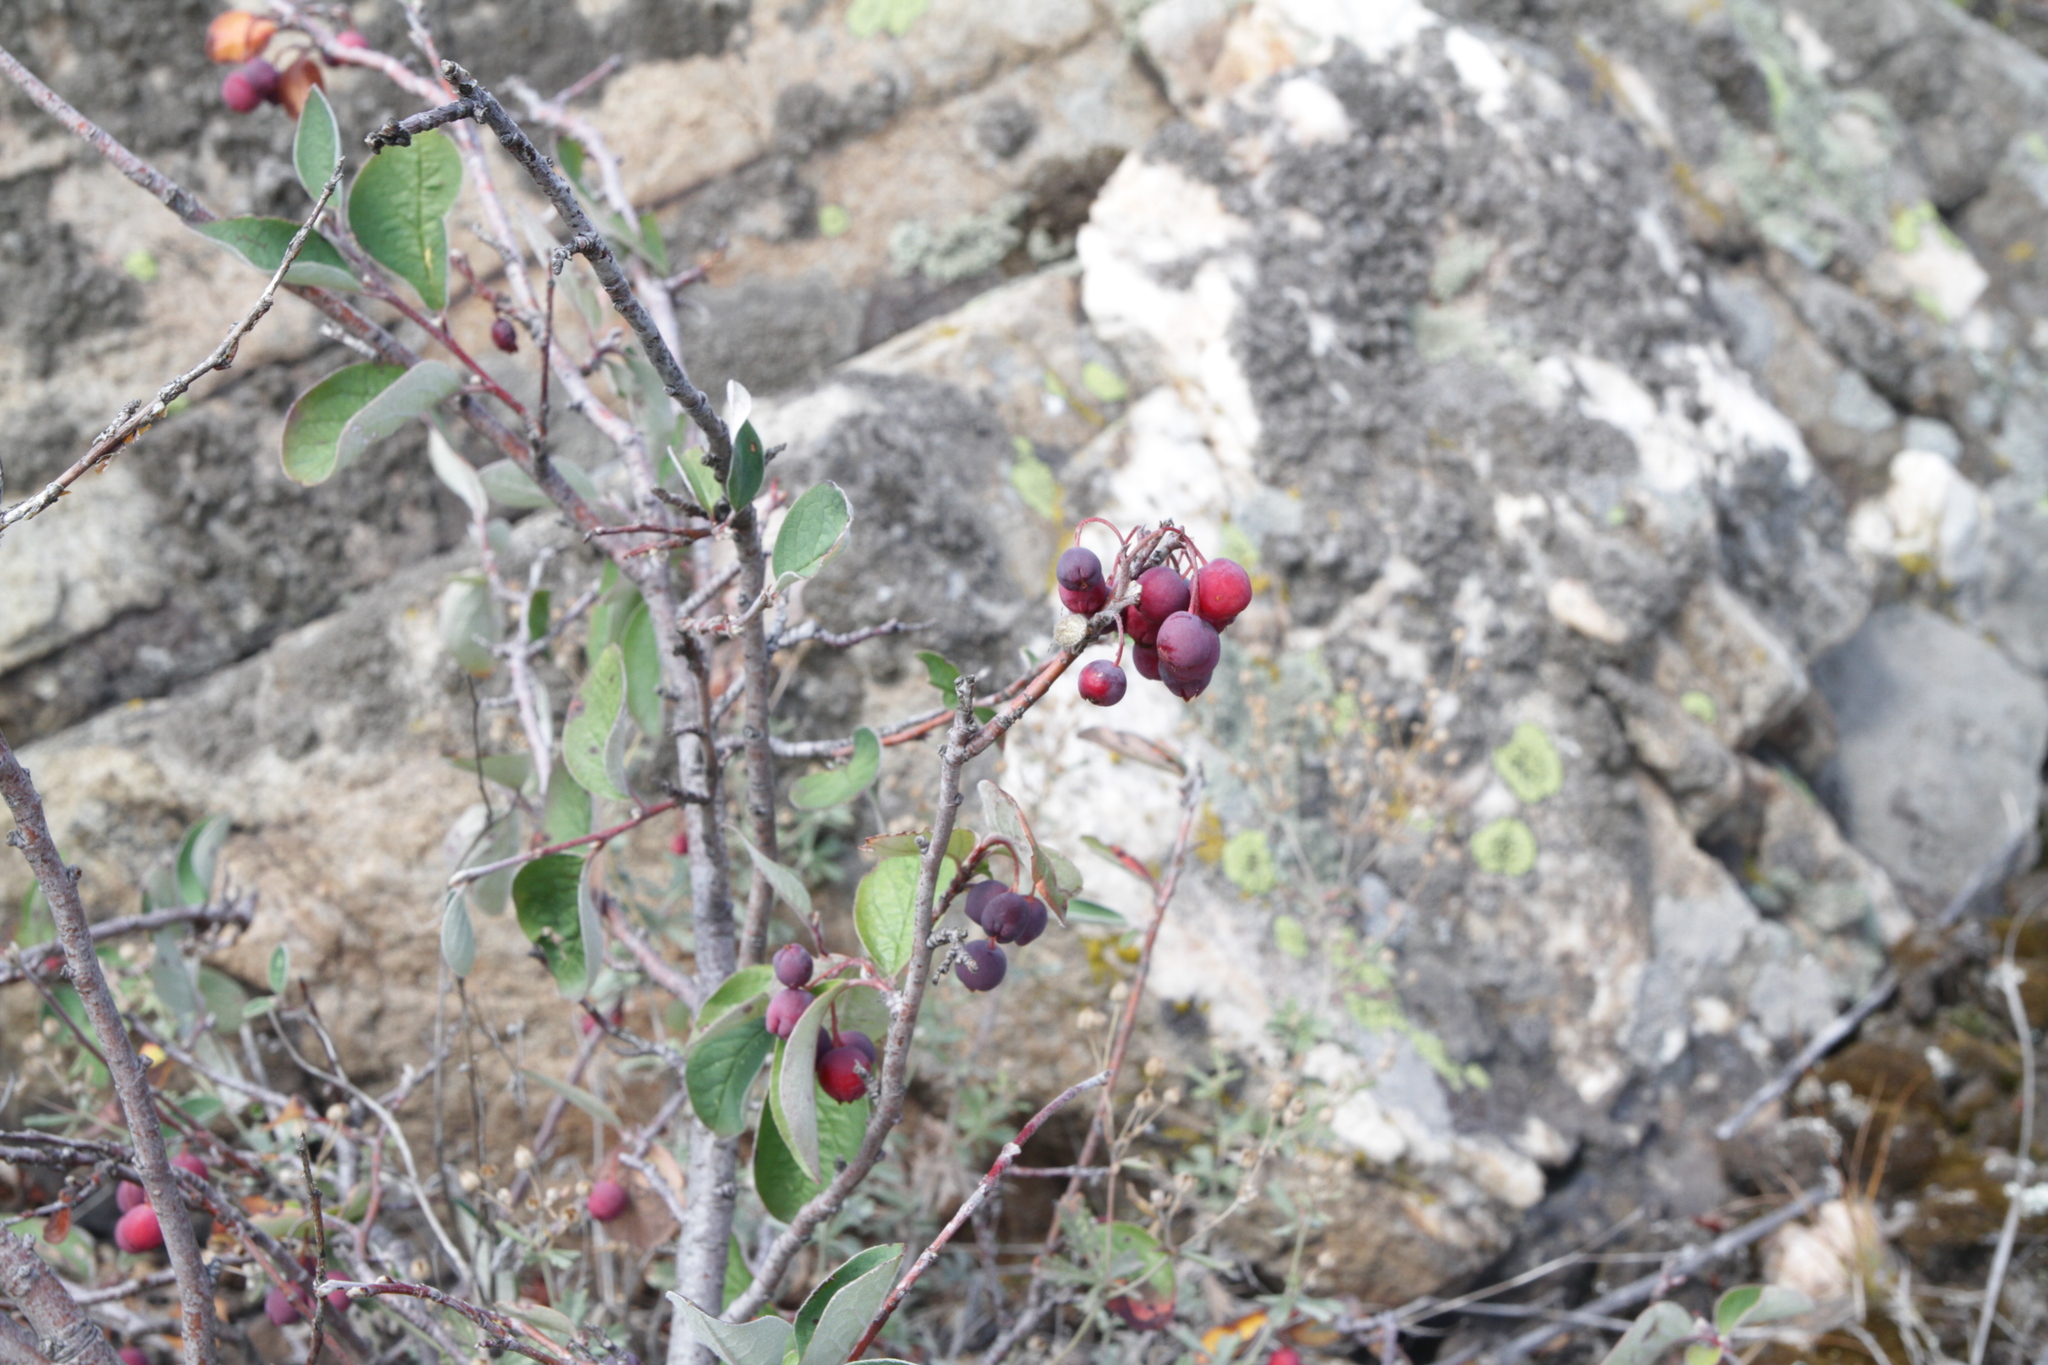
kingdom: Plantae
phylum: Tracheophyta
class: Magnoliopsida
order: Rosales
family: Rosaceae
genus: Cotoneaster
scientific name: Cotoneaster melanocarpus
